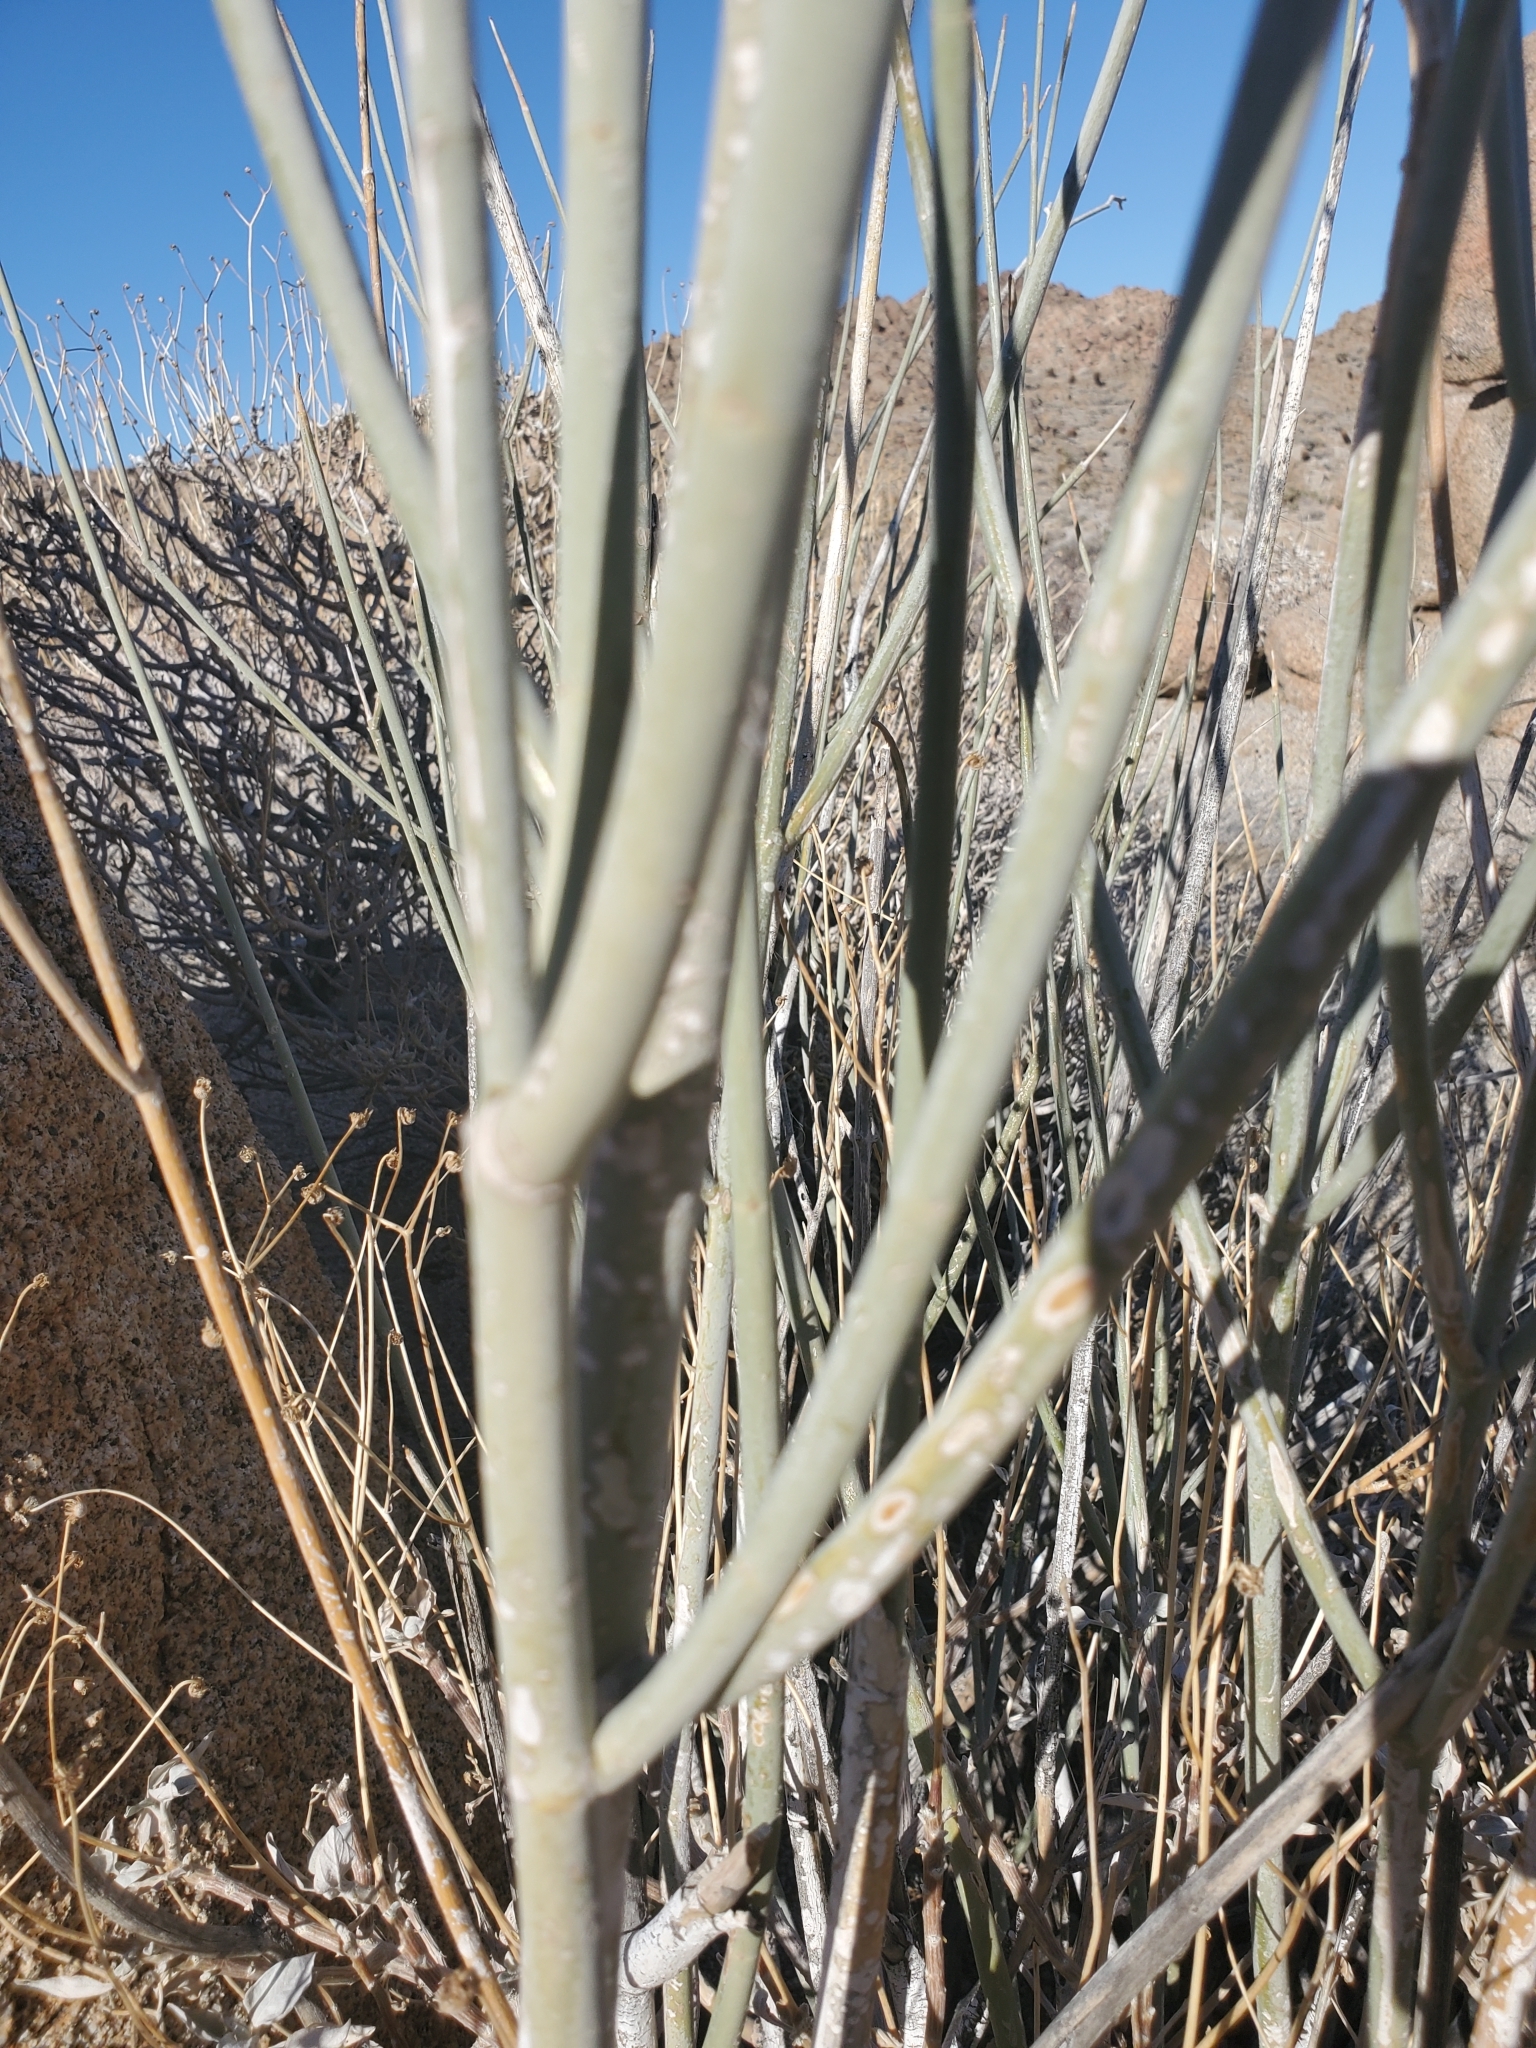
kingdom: Plantae
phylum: Tracheophyta
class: Magnoliopsida
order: Gentianales
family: Apocynaceae
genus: Asclepias
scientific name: Asclepias albicans
